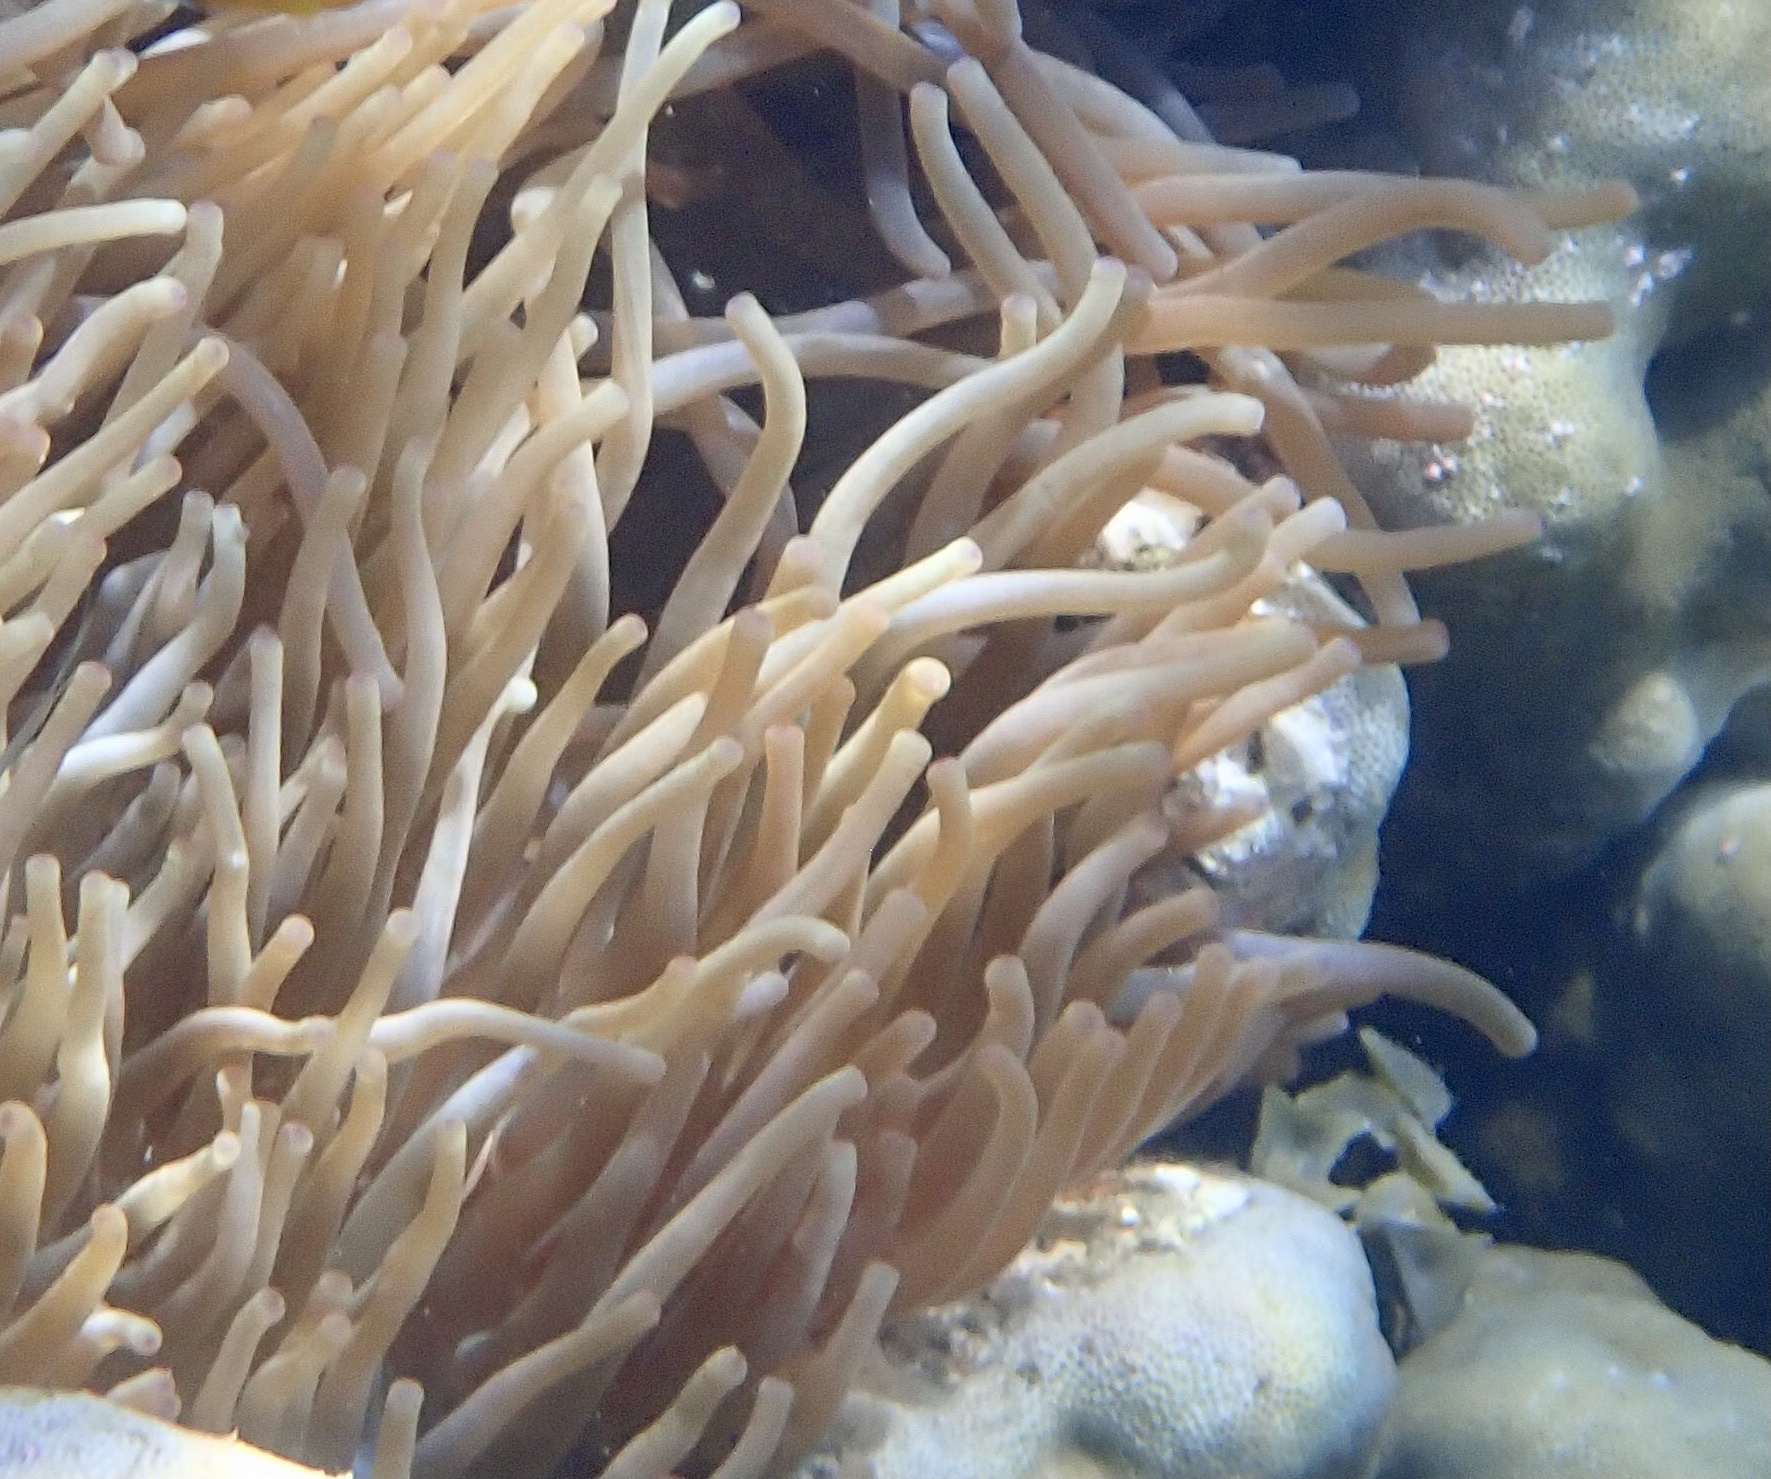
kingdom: Animalia
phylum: Cnidaria
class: Anthozoa
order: Actiniaria
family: Actiniidae
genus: Entacmaea
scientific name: Entacmaea quadricolor
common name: Bulb tentacle sea anemone
